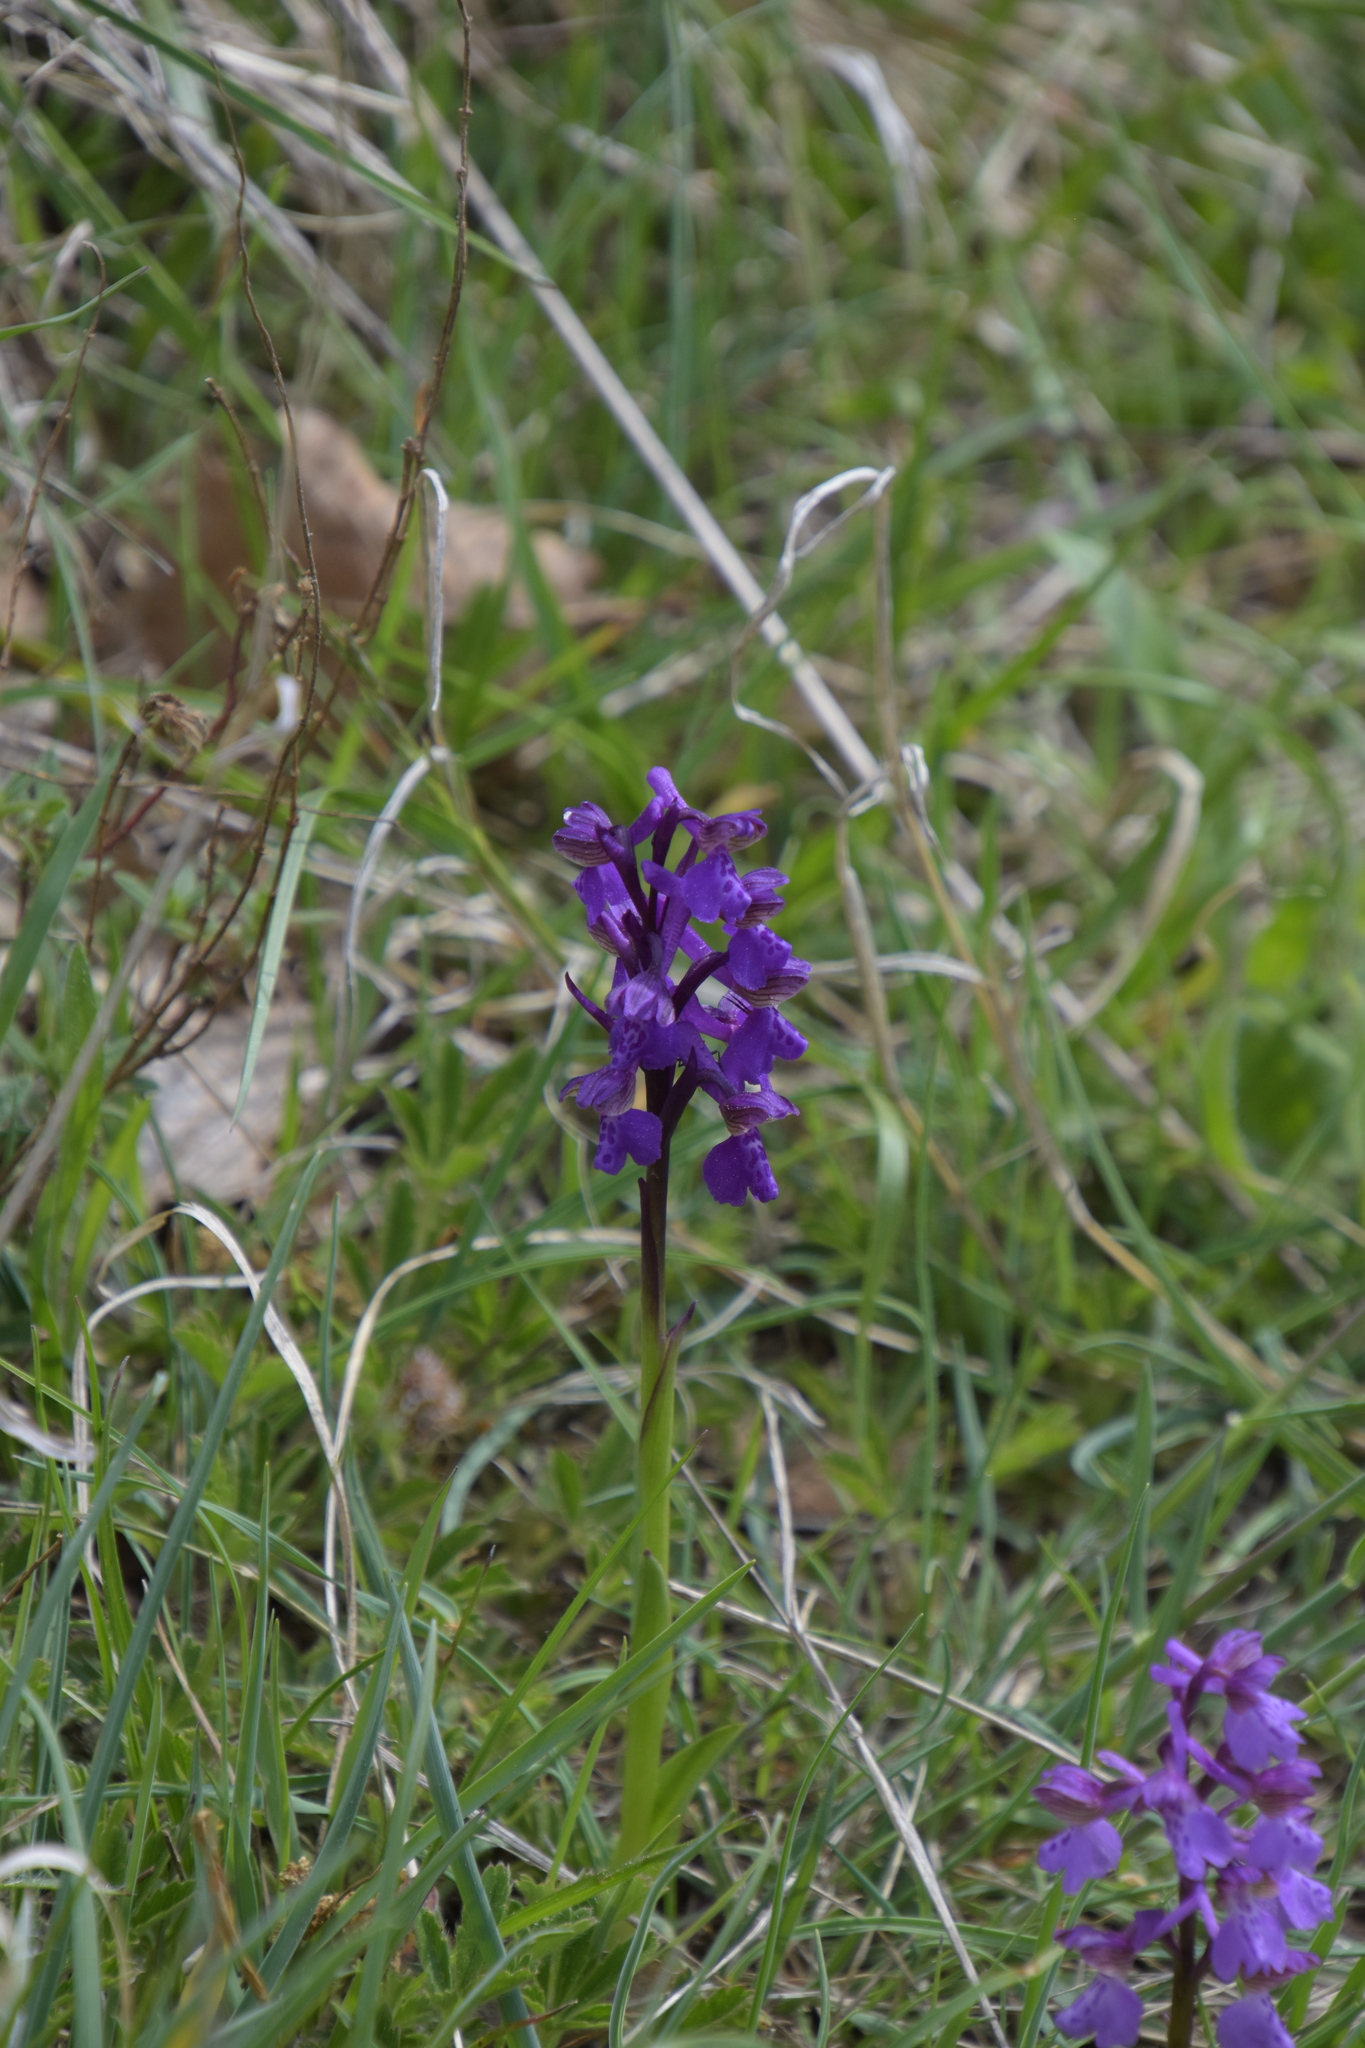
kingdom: Plantae
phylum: Tracheophyta
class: Liliopsida
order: Asparagales
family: Orchidaceae
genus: Anacamptis
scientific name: Anacamptis morio
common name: Green-winged orchid
